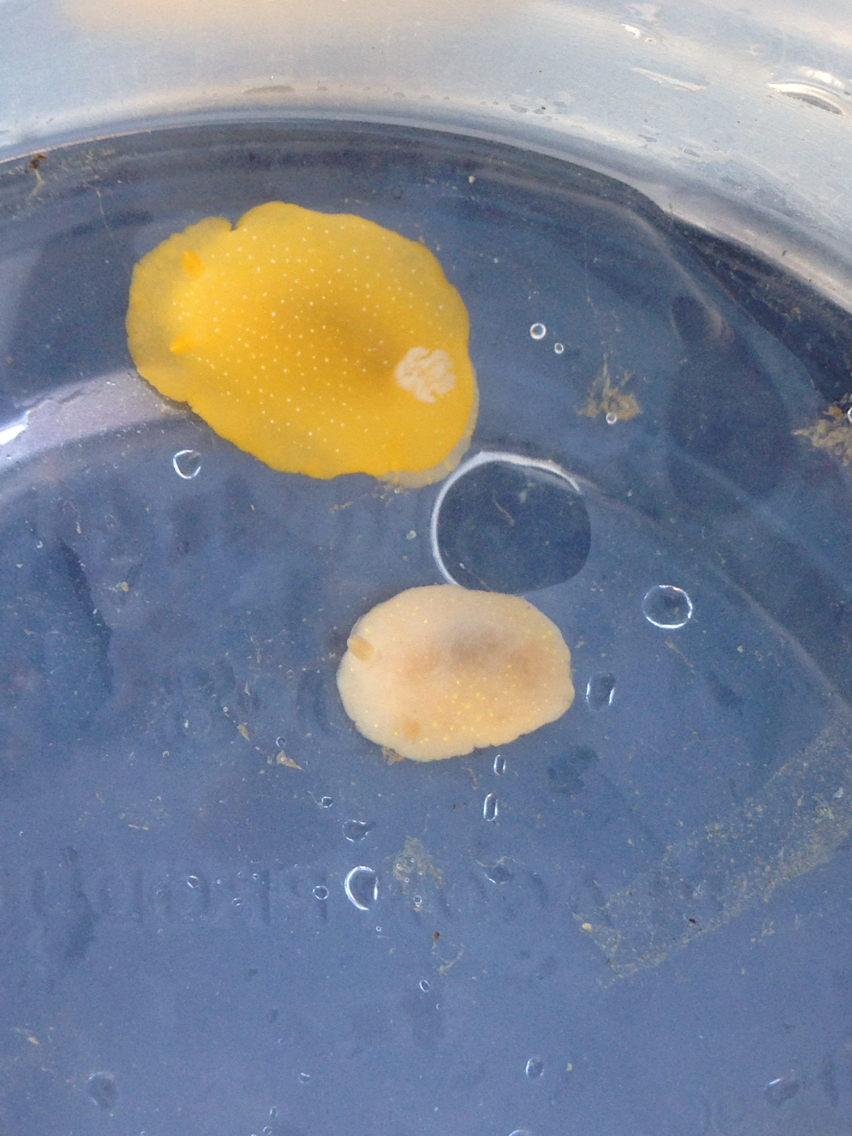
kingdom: Animalia
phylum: Mollusca
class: Gastropoda
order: Nudibranchia
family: Dendrodorididae
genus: Doriopsilla
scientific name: Doriopsilla fulva
